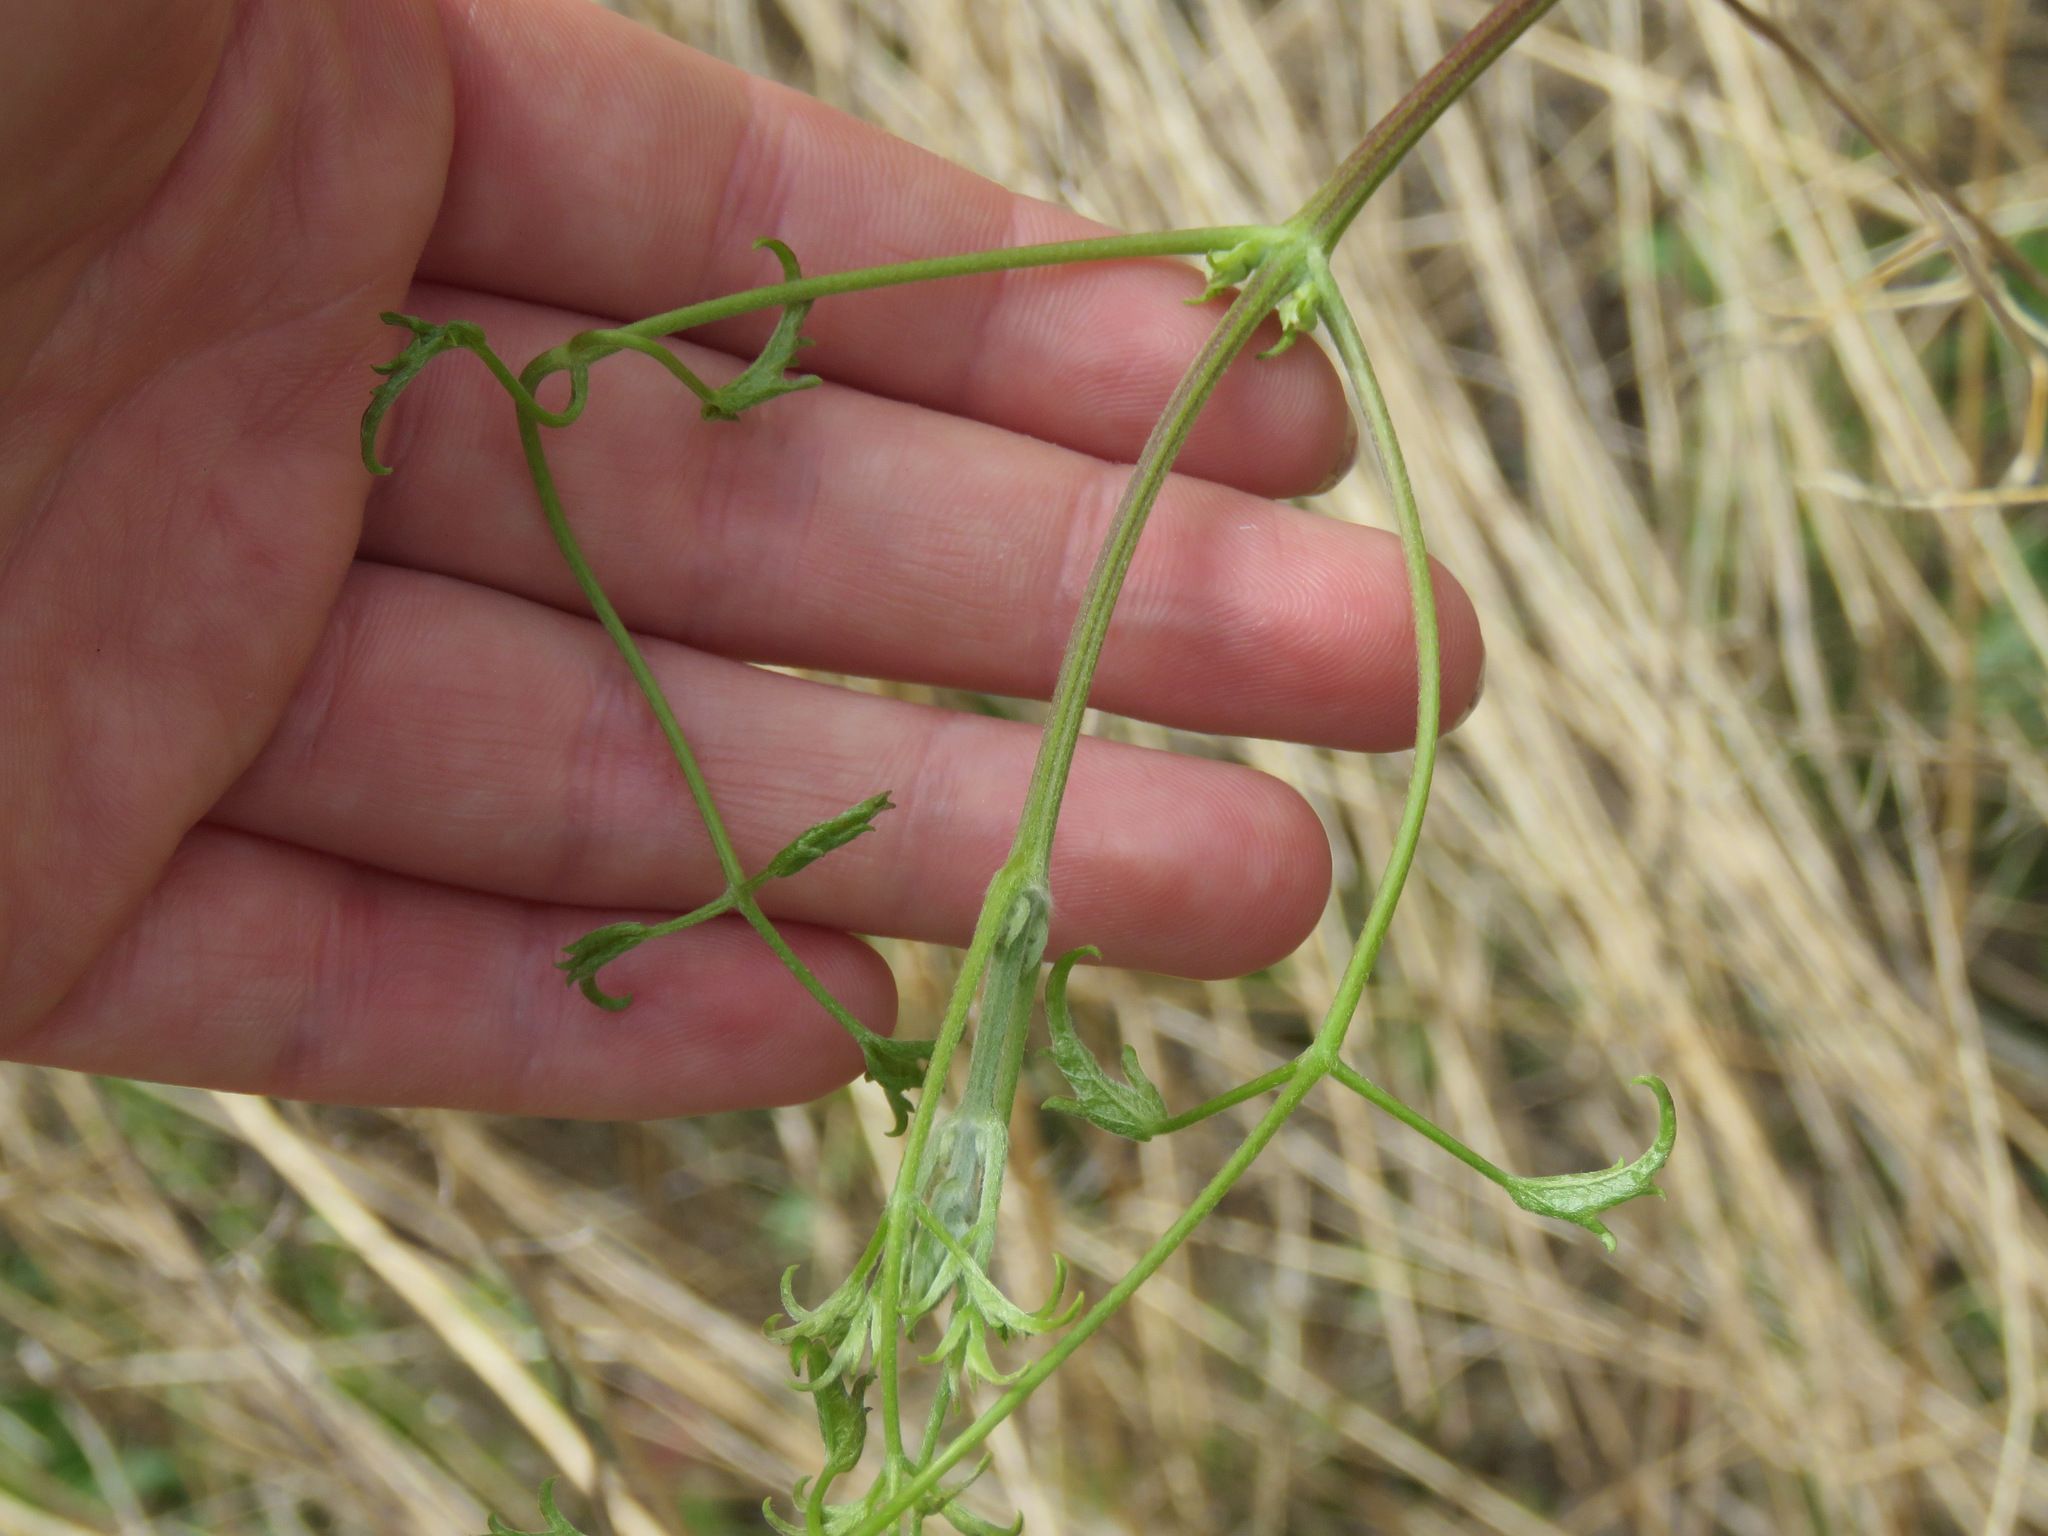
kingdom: Plantae
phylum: Tracheophyta
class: Magnoliopsida
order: Ranunculales
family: Ranunculaceae
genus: Clematis
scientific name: Clematis ligusticifolia
